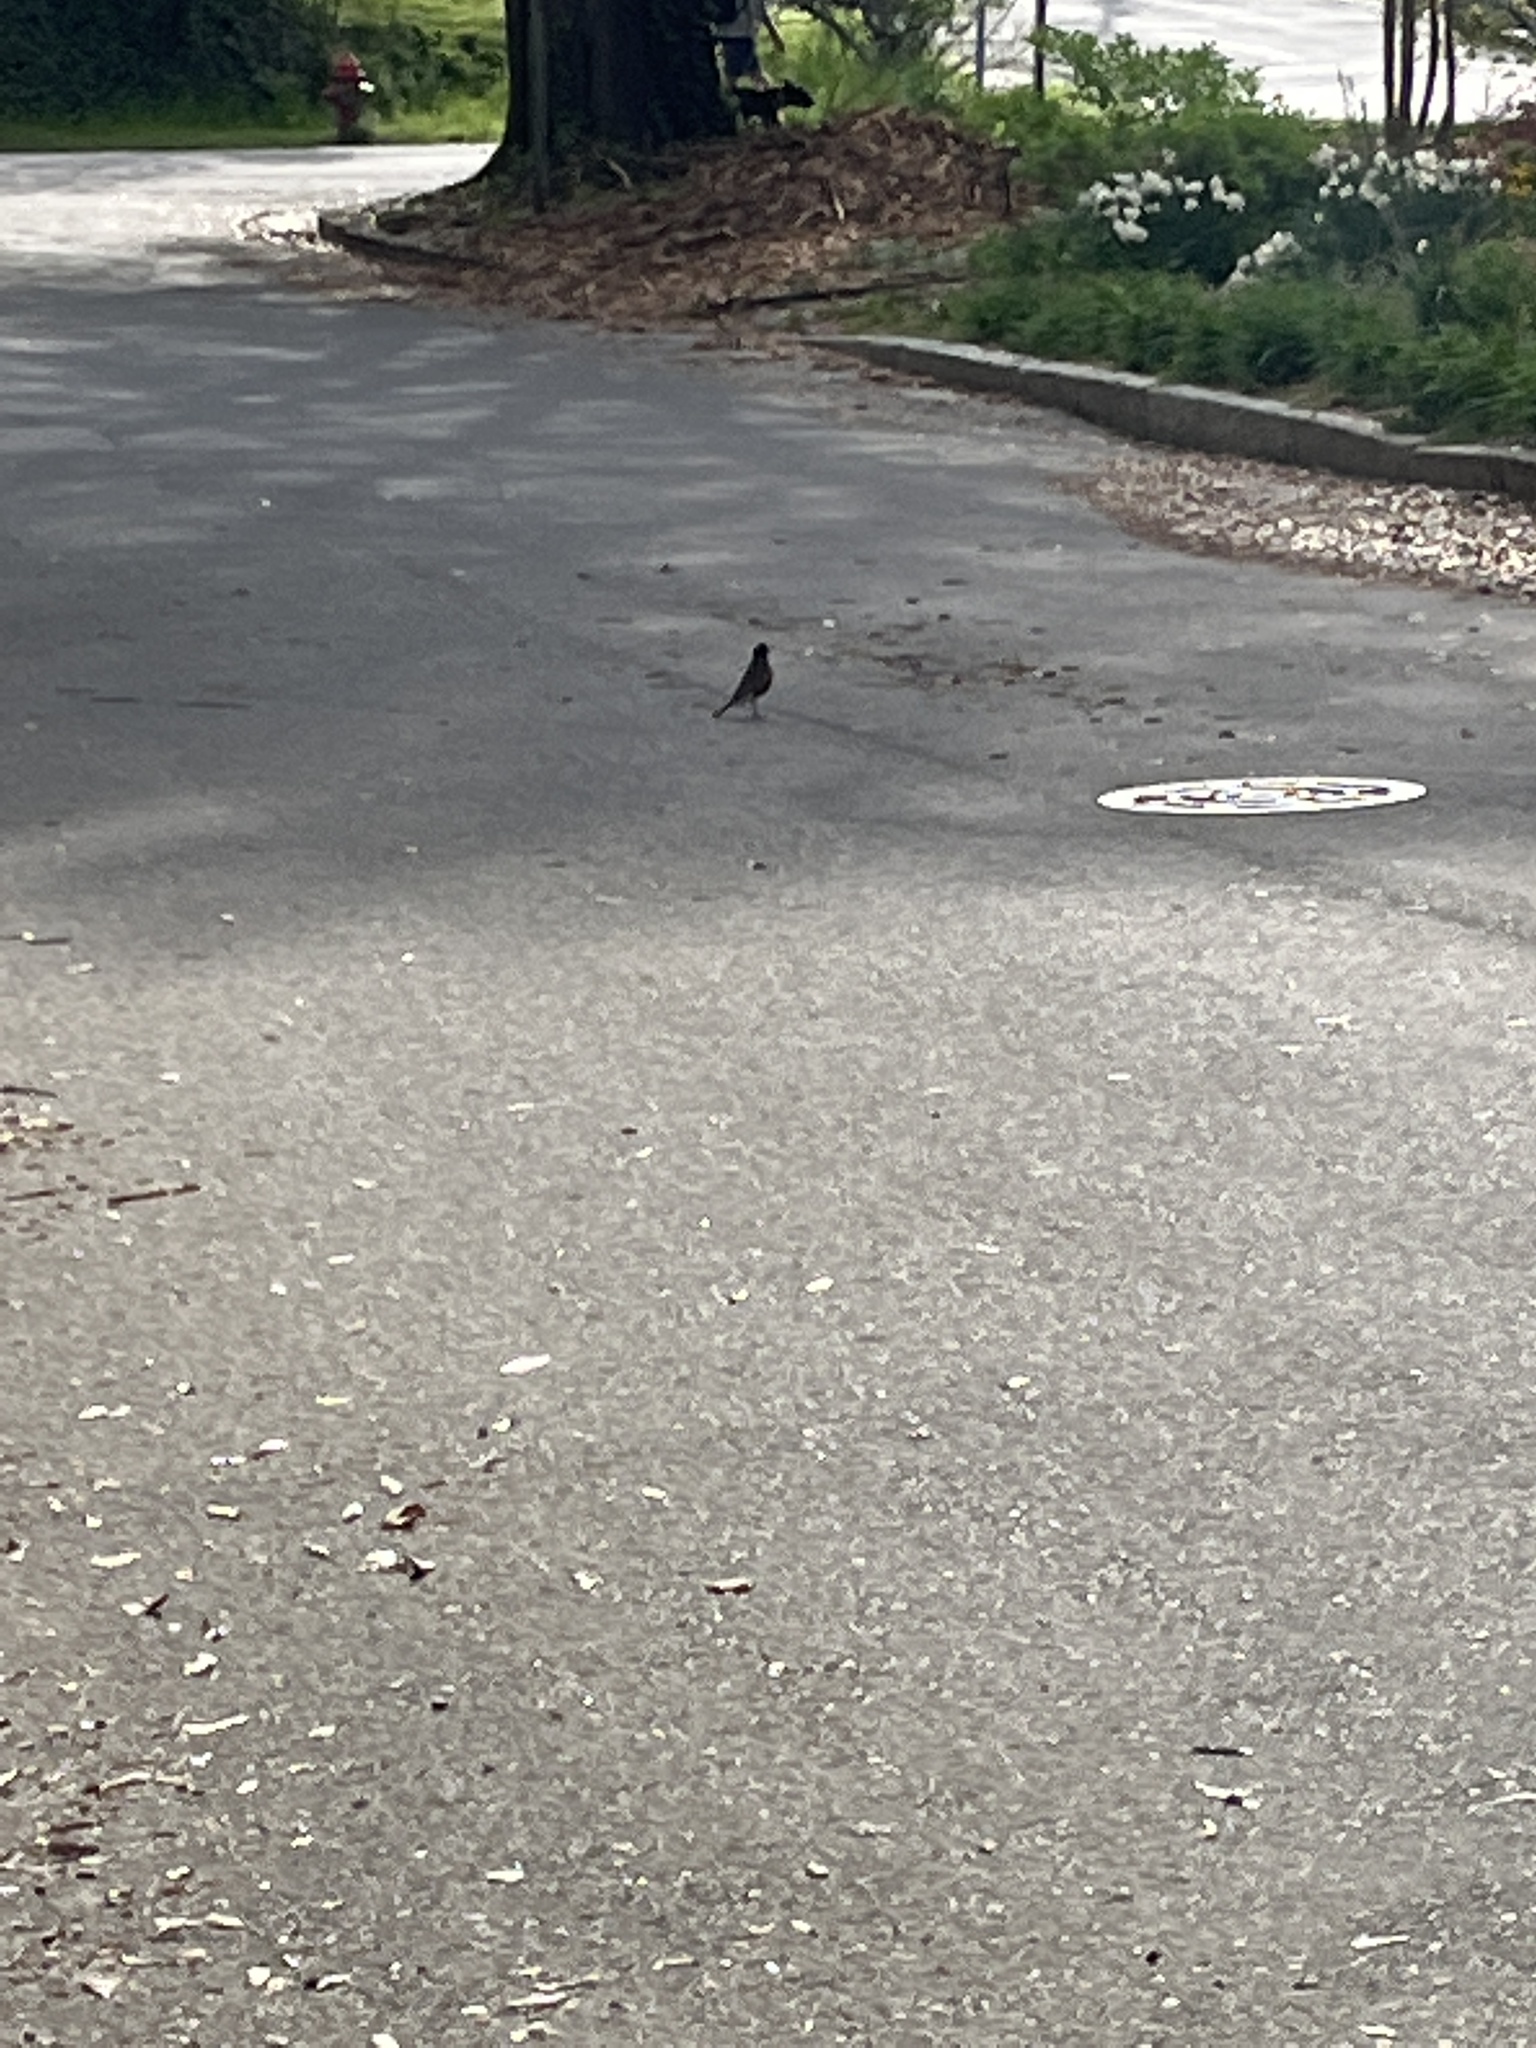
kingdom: Animalia
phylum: Chordata
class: Aves
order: Passeriformes
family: Turdidae
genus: Turdus
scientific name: Turdus migratorius
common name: American robin
